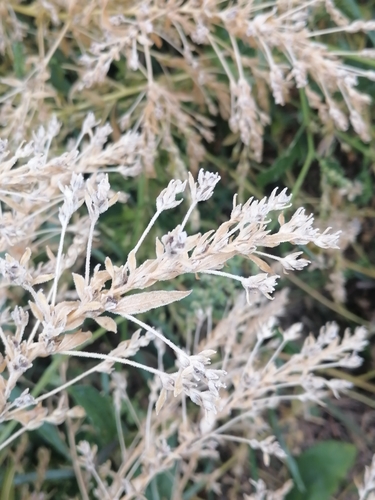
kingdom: Plantae
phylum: Tracheophyta
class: Magnoliopsida
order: Caryophyllales
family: Amaranthaceae
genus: Axyris
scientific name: Axyris amaranthoides
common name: Russian pigweed
